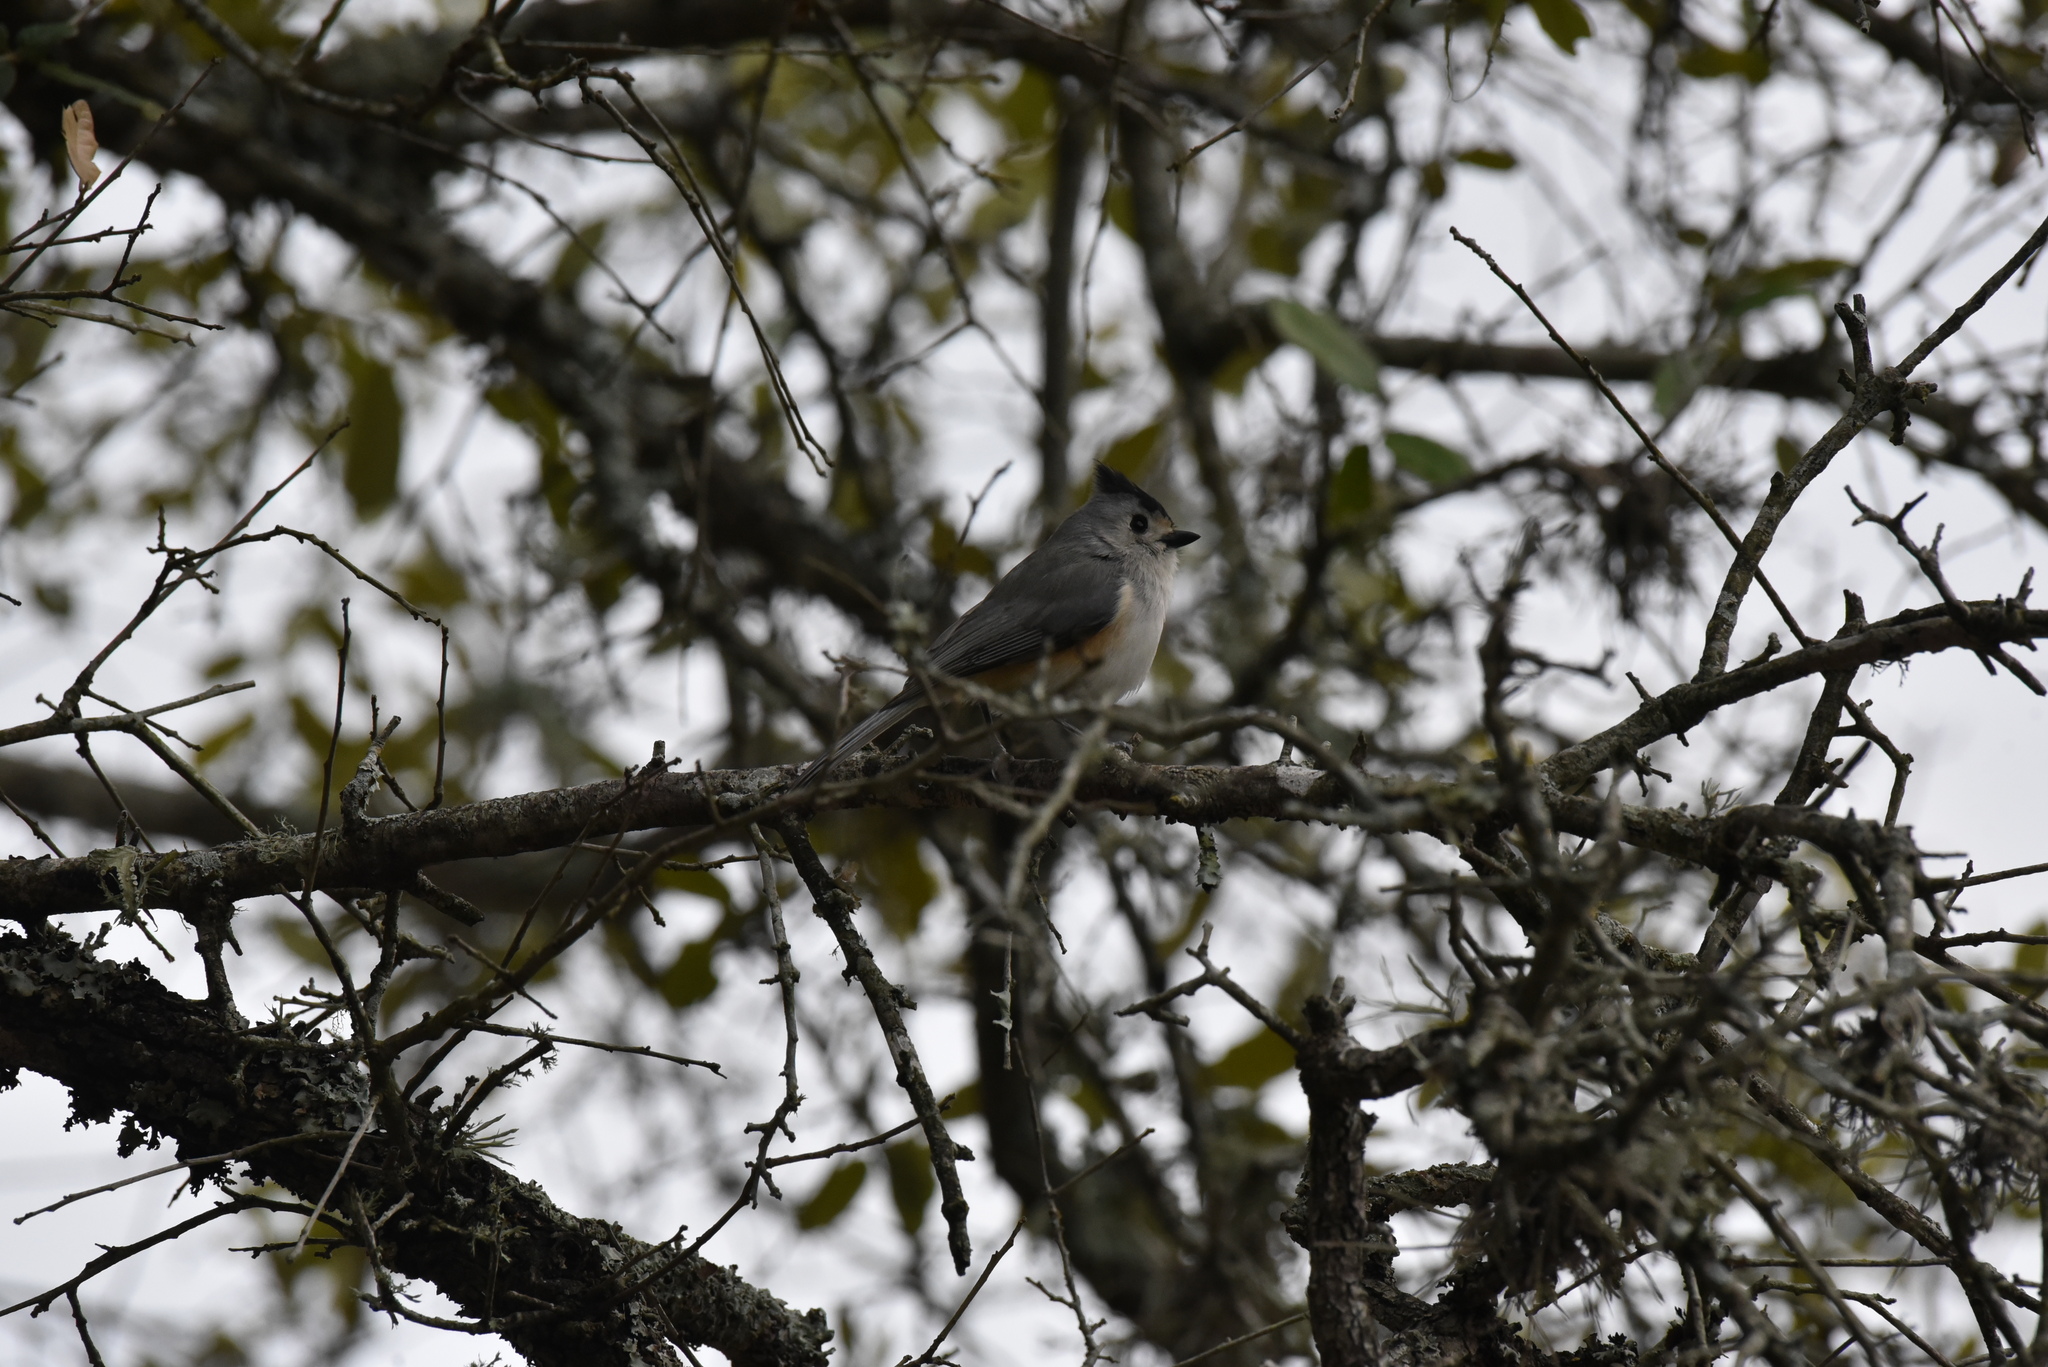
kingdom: Animalia
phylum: Chordata
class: Aves
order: Passeriformes
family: Paridae
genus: Baeolophus
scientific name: Baeolophus atricristatus
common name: Black-crested titmouse
